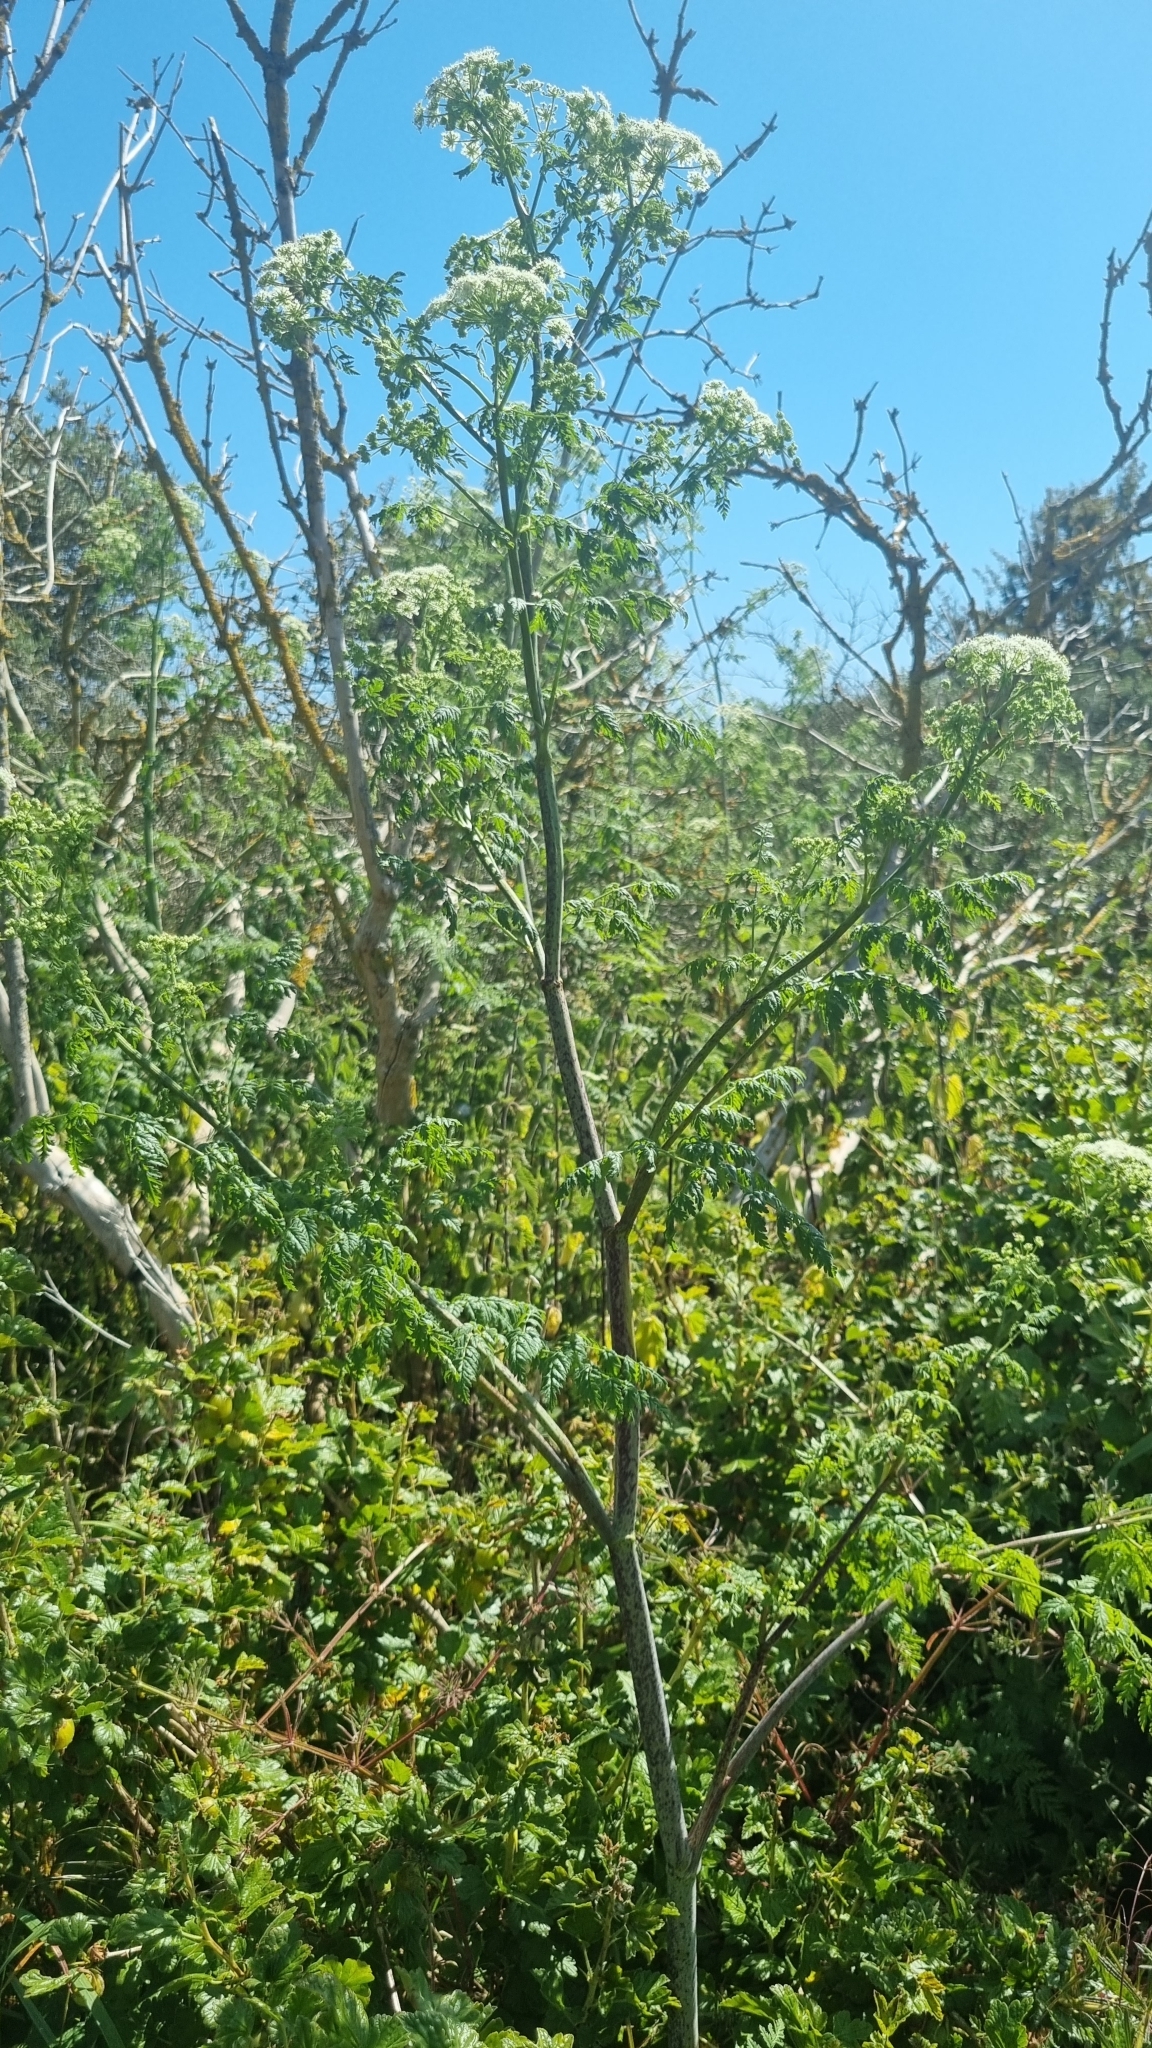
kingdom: Plantae
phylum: Tracheophyta
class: Magnoliopsida
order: Apiales
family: Apiaceae
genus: Conium
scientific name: Conium maculatum
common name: Hemlock
